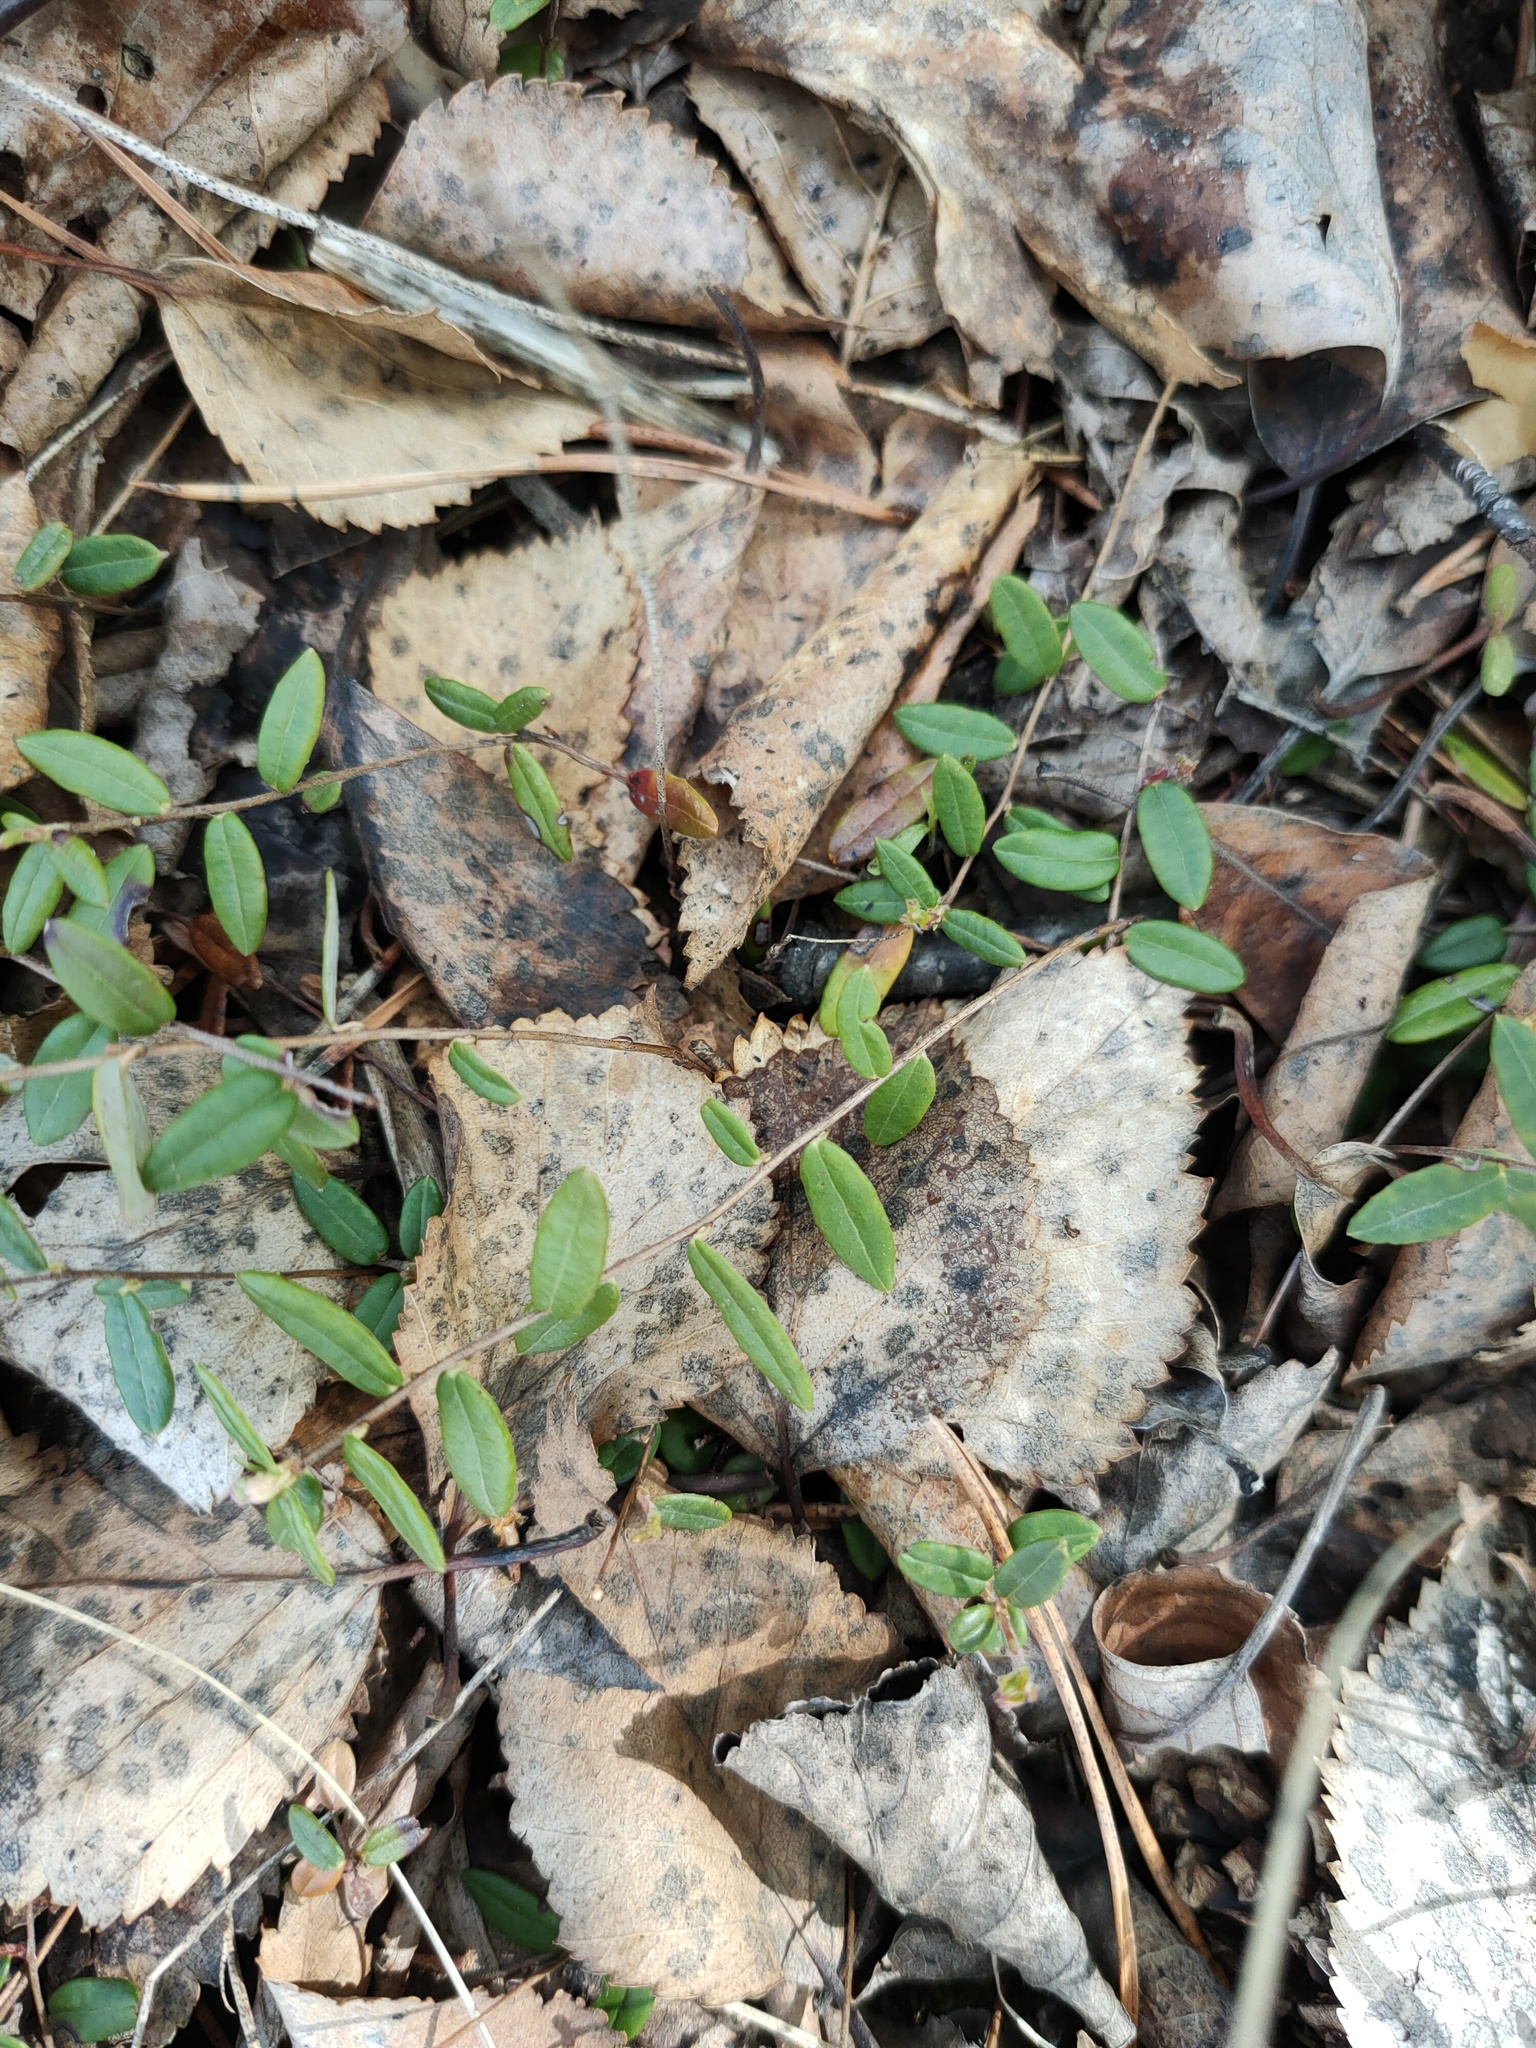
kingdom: Plantae
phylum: Tracheophyta
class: Magnoliopsida
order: Ericales
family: Ericaceae
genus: Vaccinium
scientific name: Vaccinium oxycoccos
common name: Cranberry
